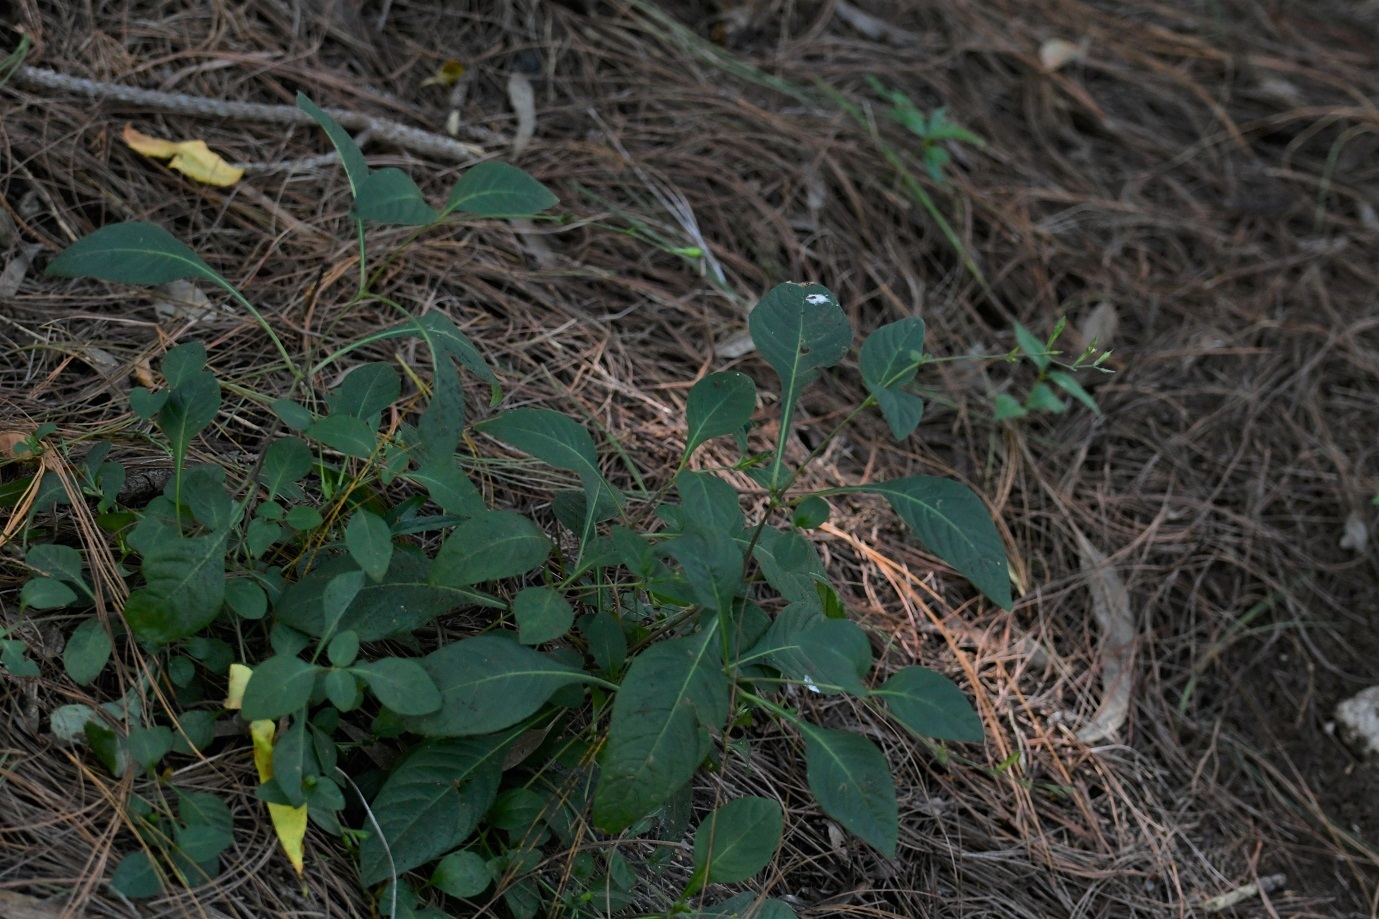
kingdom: Plantae
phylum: Tracheophyta
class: Magnoliopsida
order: Lamiales
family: Acanthaceae
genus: Pseuderanthemum
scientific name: Pseuderanthemum praecox
